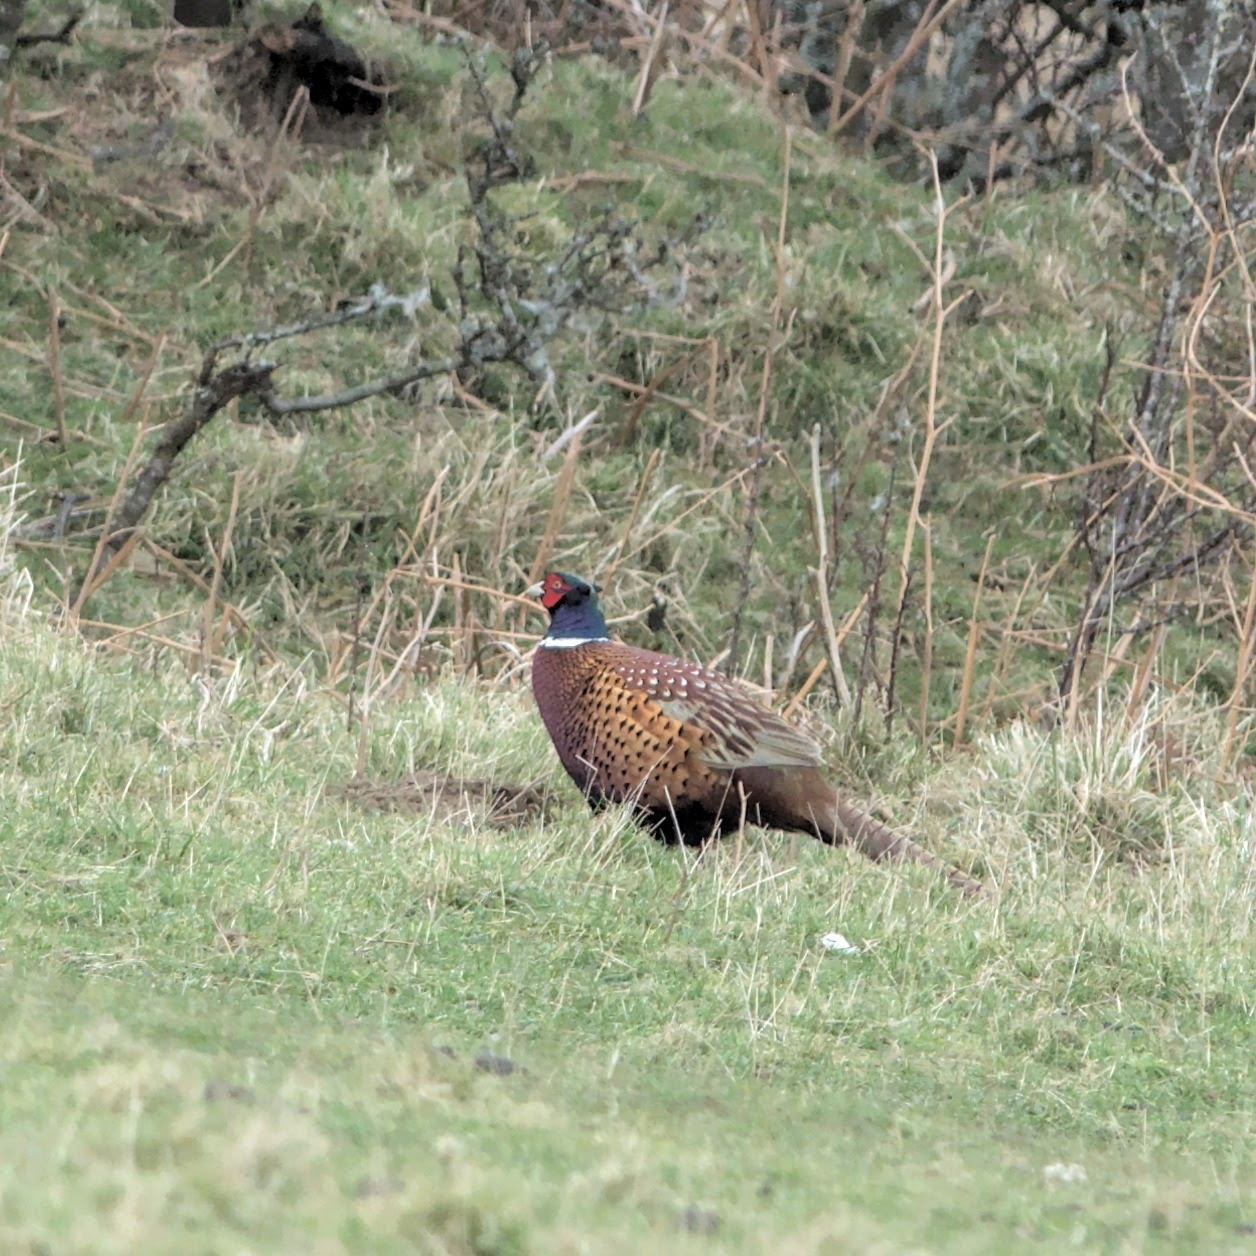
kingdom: Animalia
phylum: Chordata
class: Aves
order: Galliformes
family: Phasianidae
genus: Phasianus
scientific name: Phasianus colchicus
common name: Common pheasant
